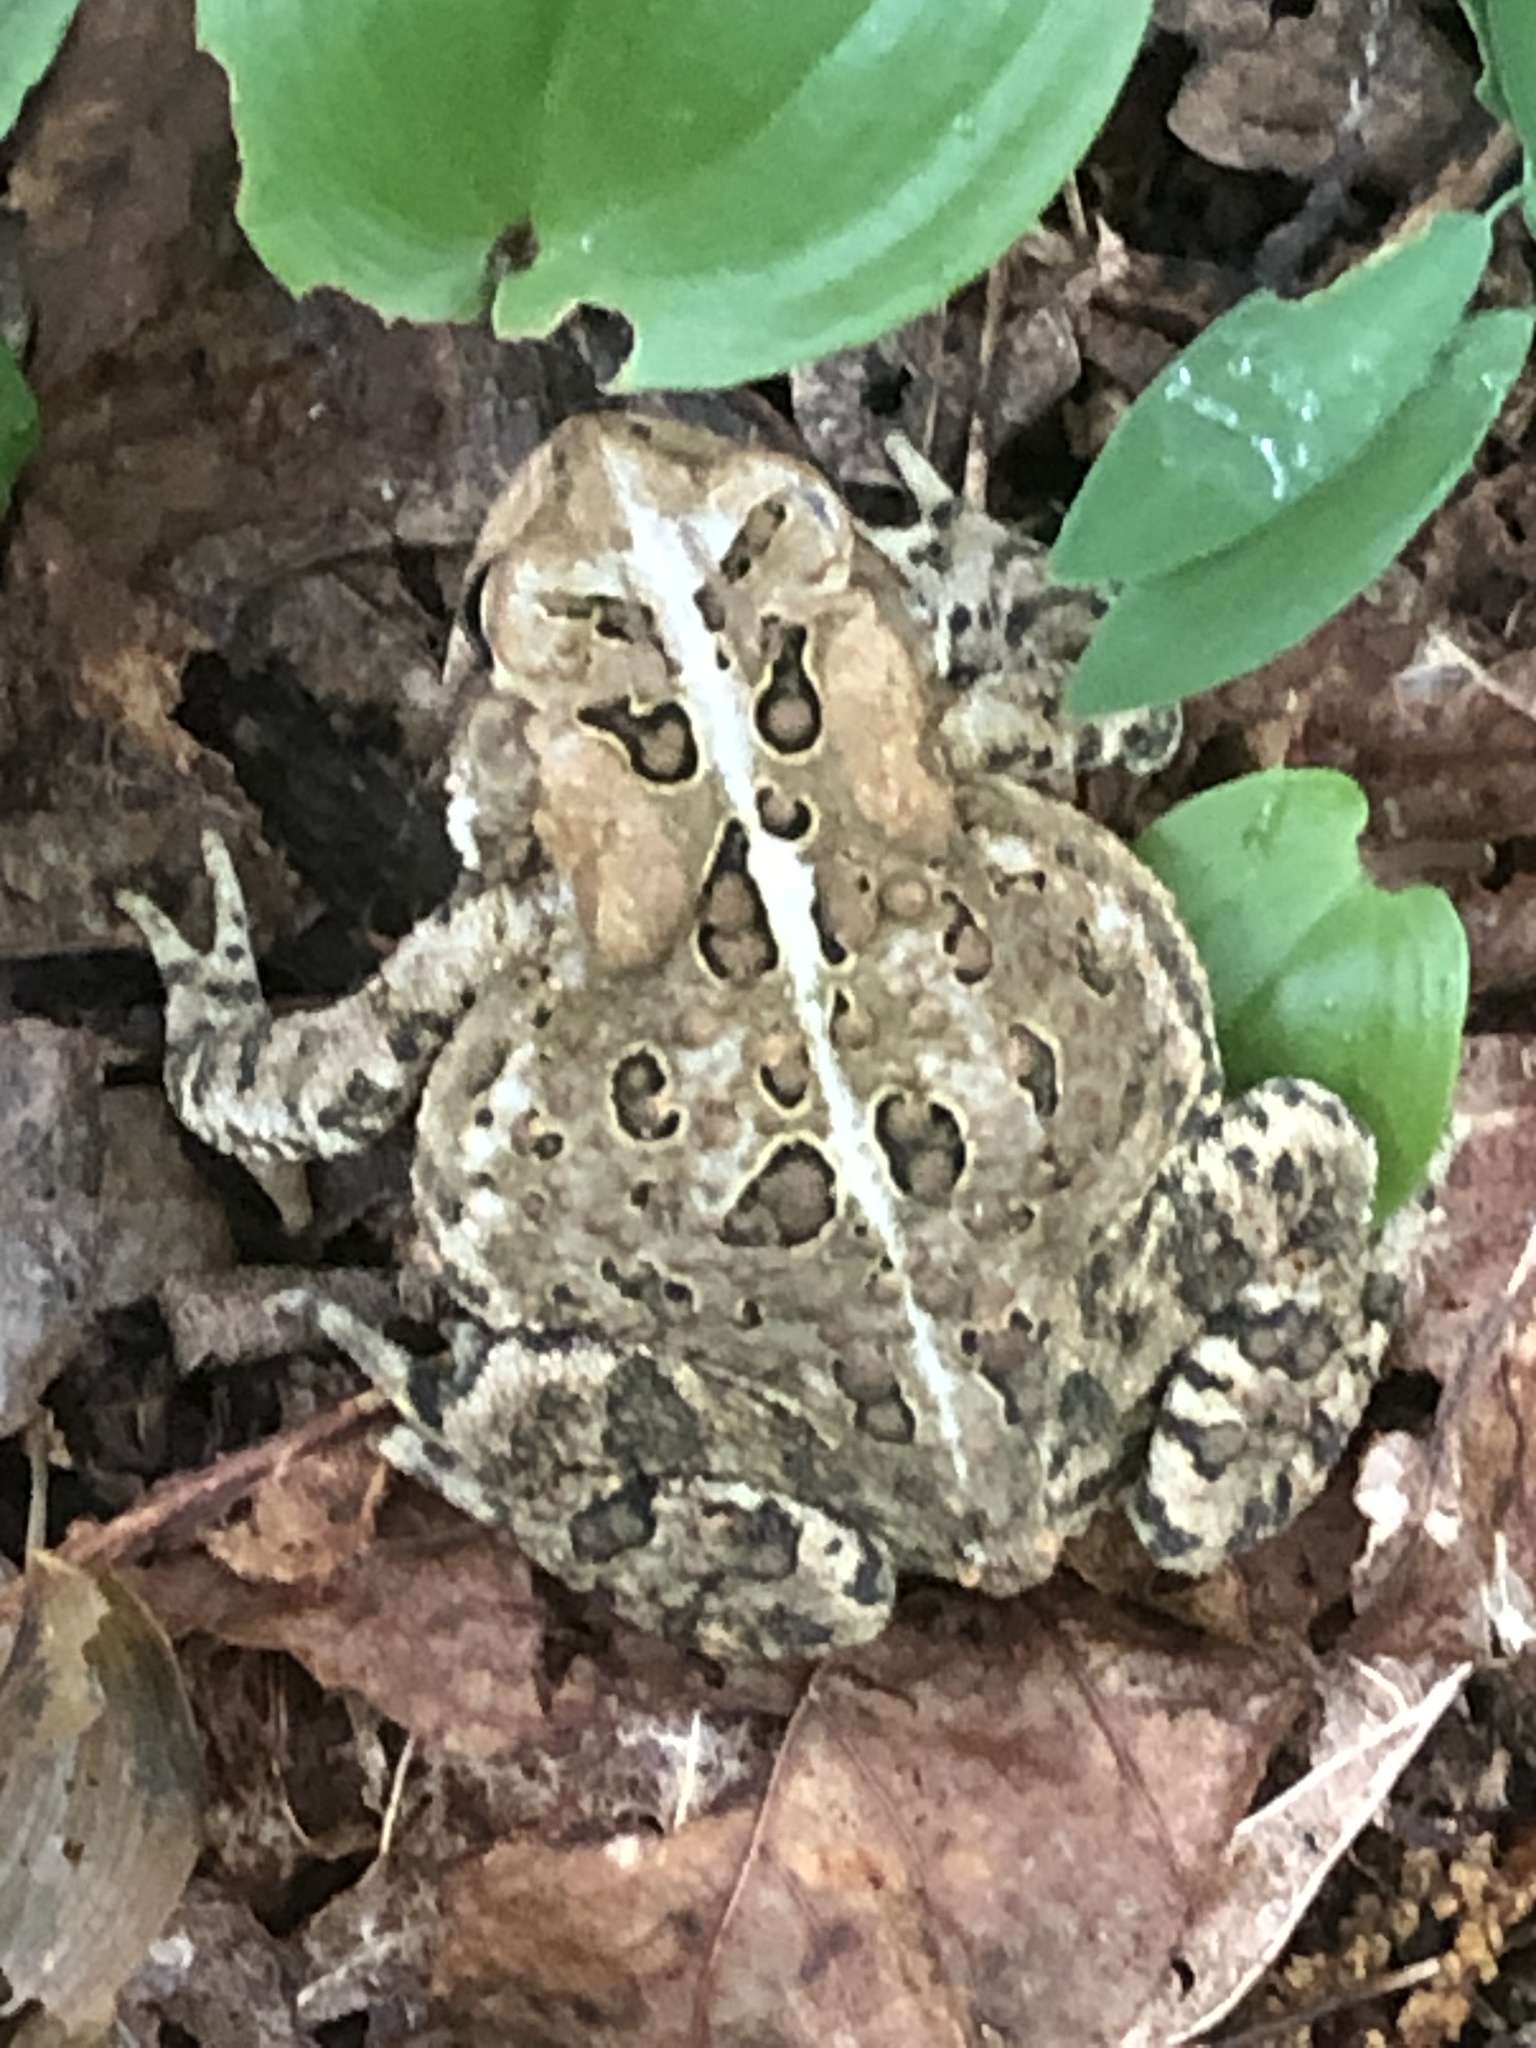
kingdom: Animalia
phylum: Chordata
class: Amphibia
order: Anura
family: Bufonidae
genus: Anaxyrus
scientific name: Anaxyrus americanus
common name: American toad
